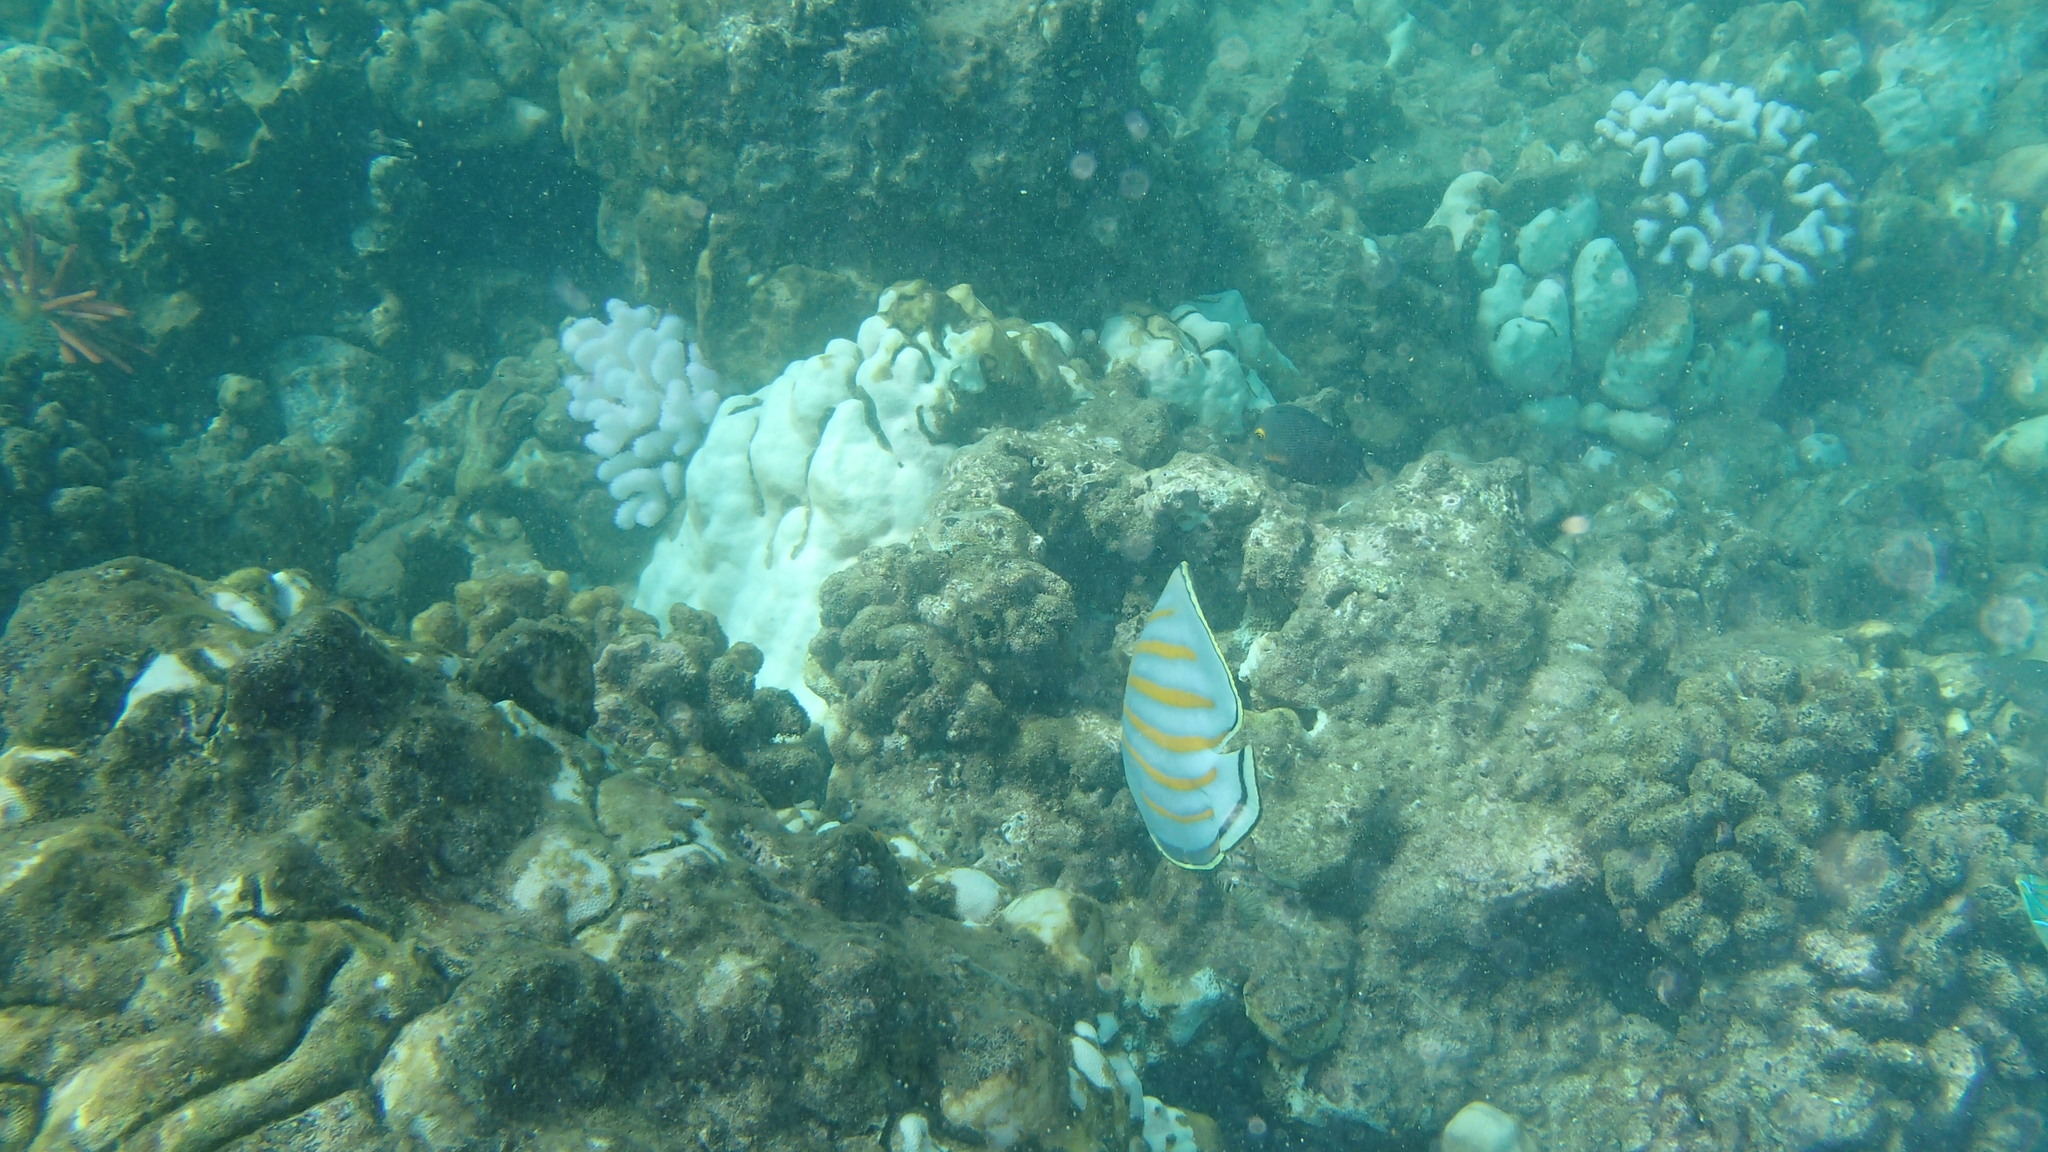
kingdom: Animalia
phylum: Chordata
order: Perciformes
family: Chaetodontidae
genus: Chaetodon
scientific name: Chaetodon ornatissimus
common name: Ornate butterflyfish
